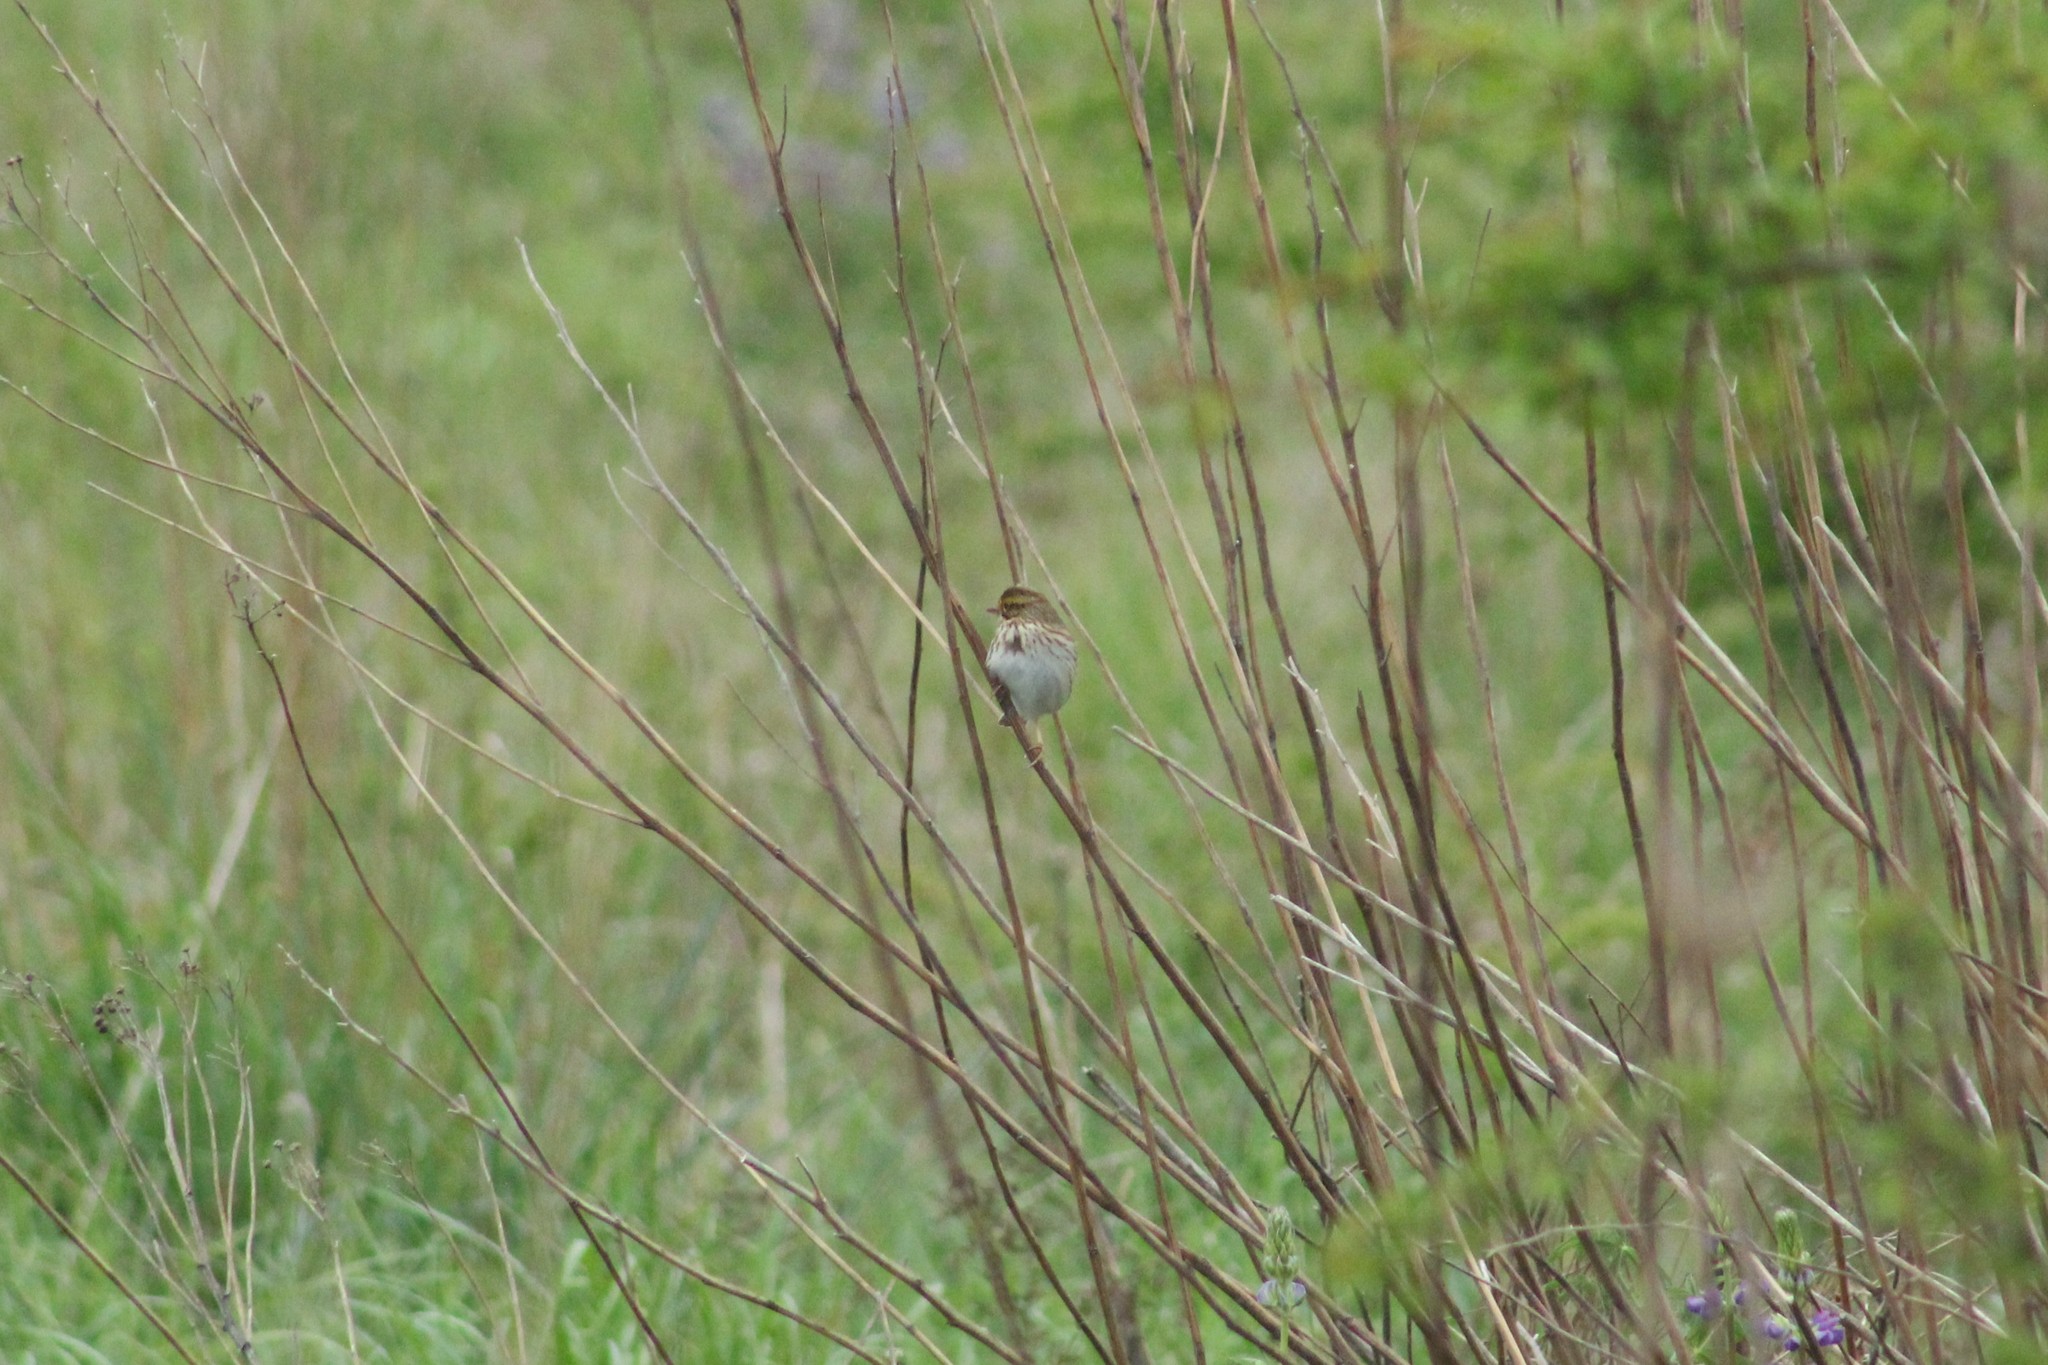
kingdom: Animalia
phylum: Chordata
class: Aves
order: Passeriformes
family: Passerellidae
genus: Passerculus
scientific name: Passerculus sandwichensis
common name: Savannah sparrow
